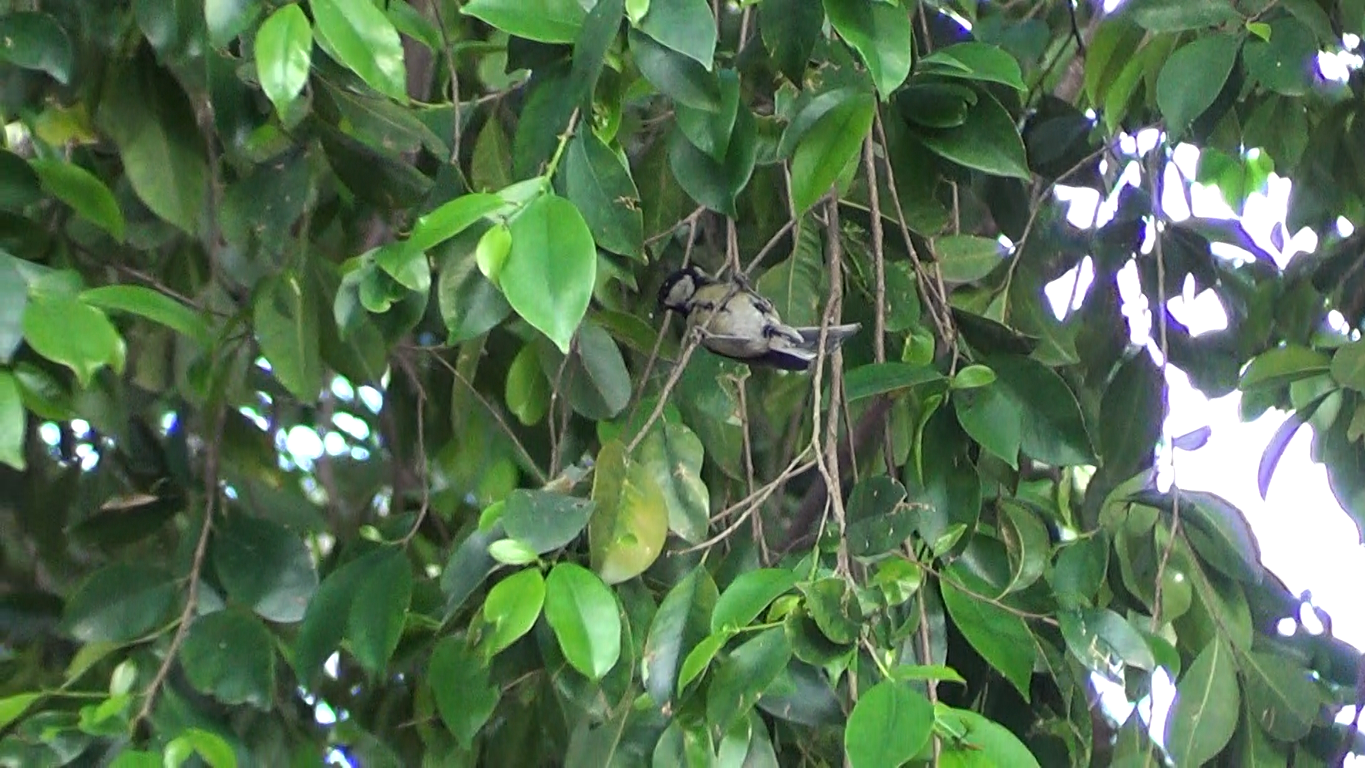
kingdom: Animalia
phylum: Chordata
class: Aves
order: Passeriformes
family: Paridae
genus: Parus
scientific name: Parus major
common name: Great tit
